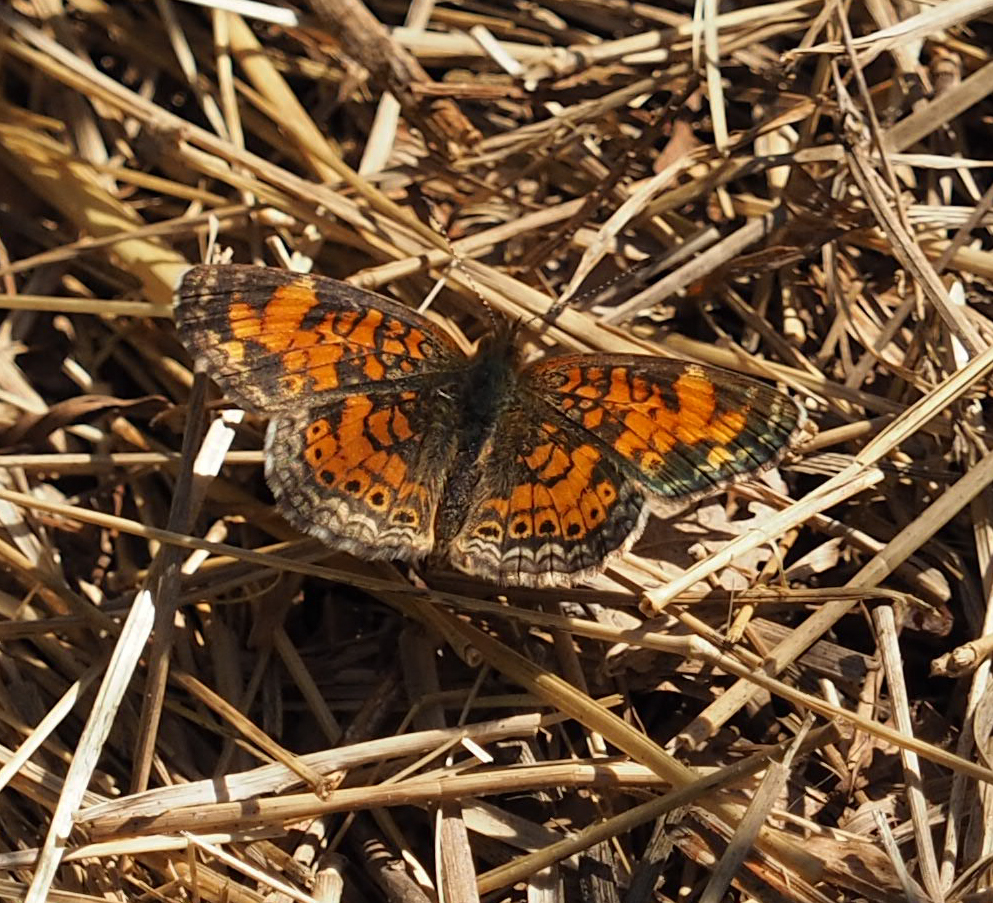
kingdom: Animalia
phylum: Arthropoda
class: Insecta
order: Lepidoptera
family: Nymphalidae
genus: Phyciodes
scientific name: Phyciodes tharos
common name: Pearl crescent
